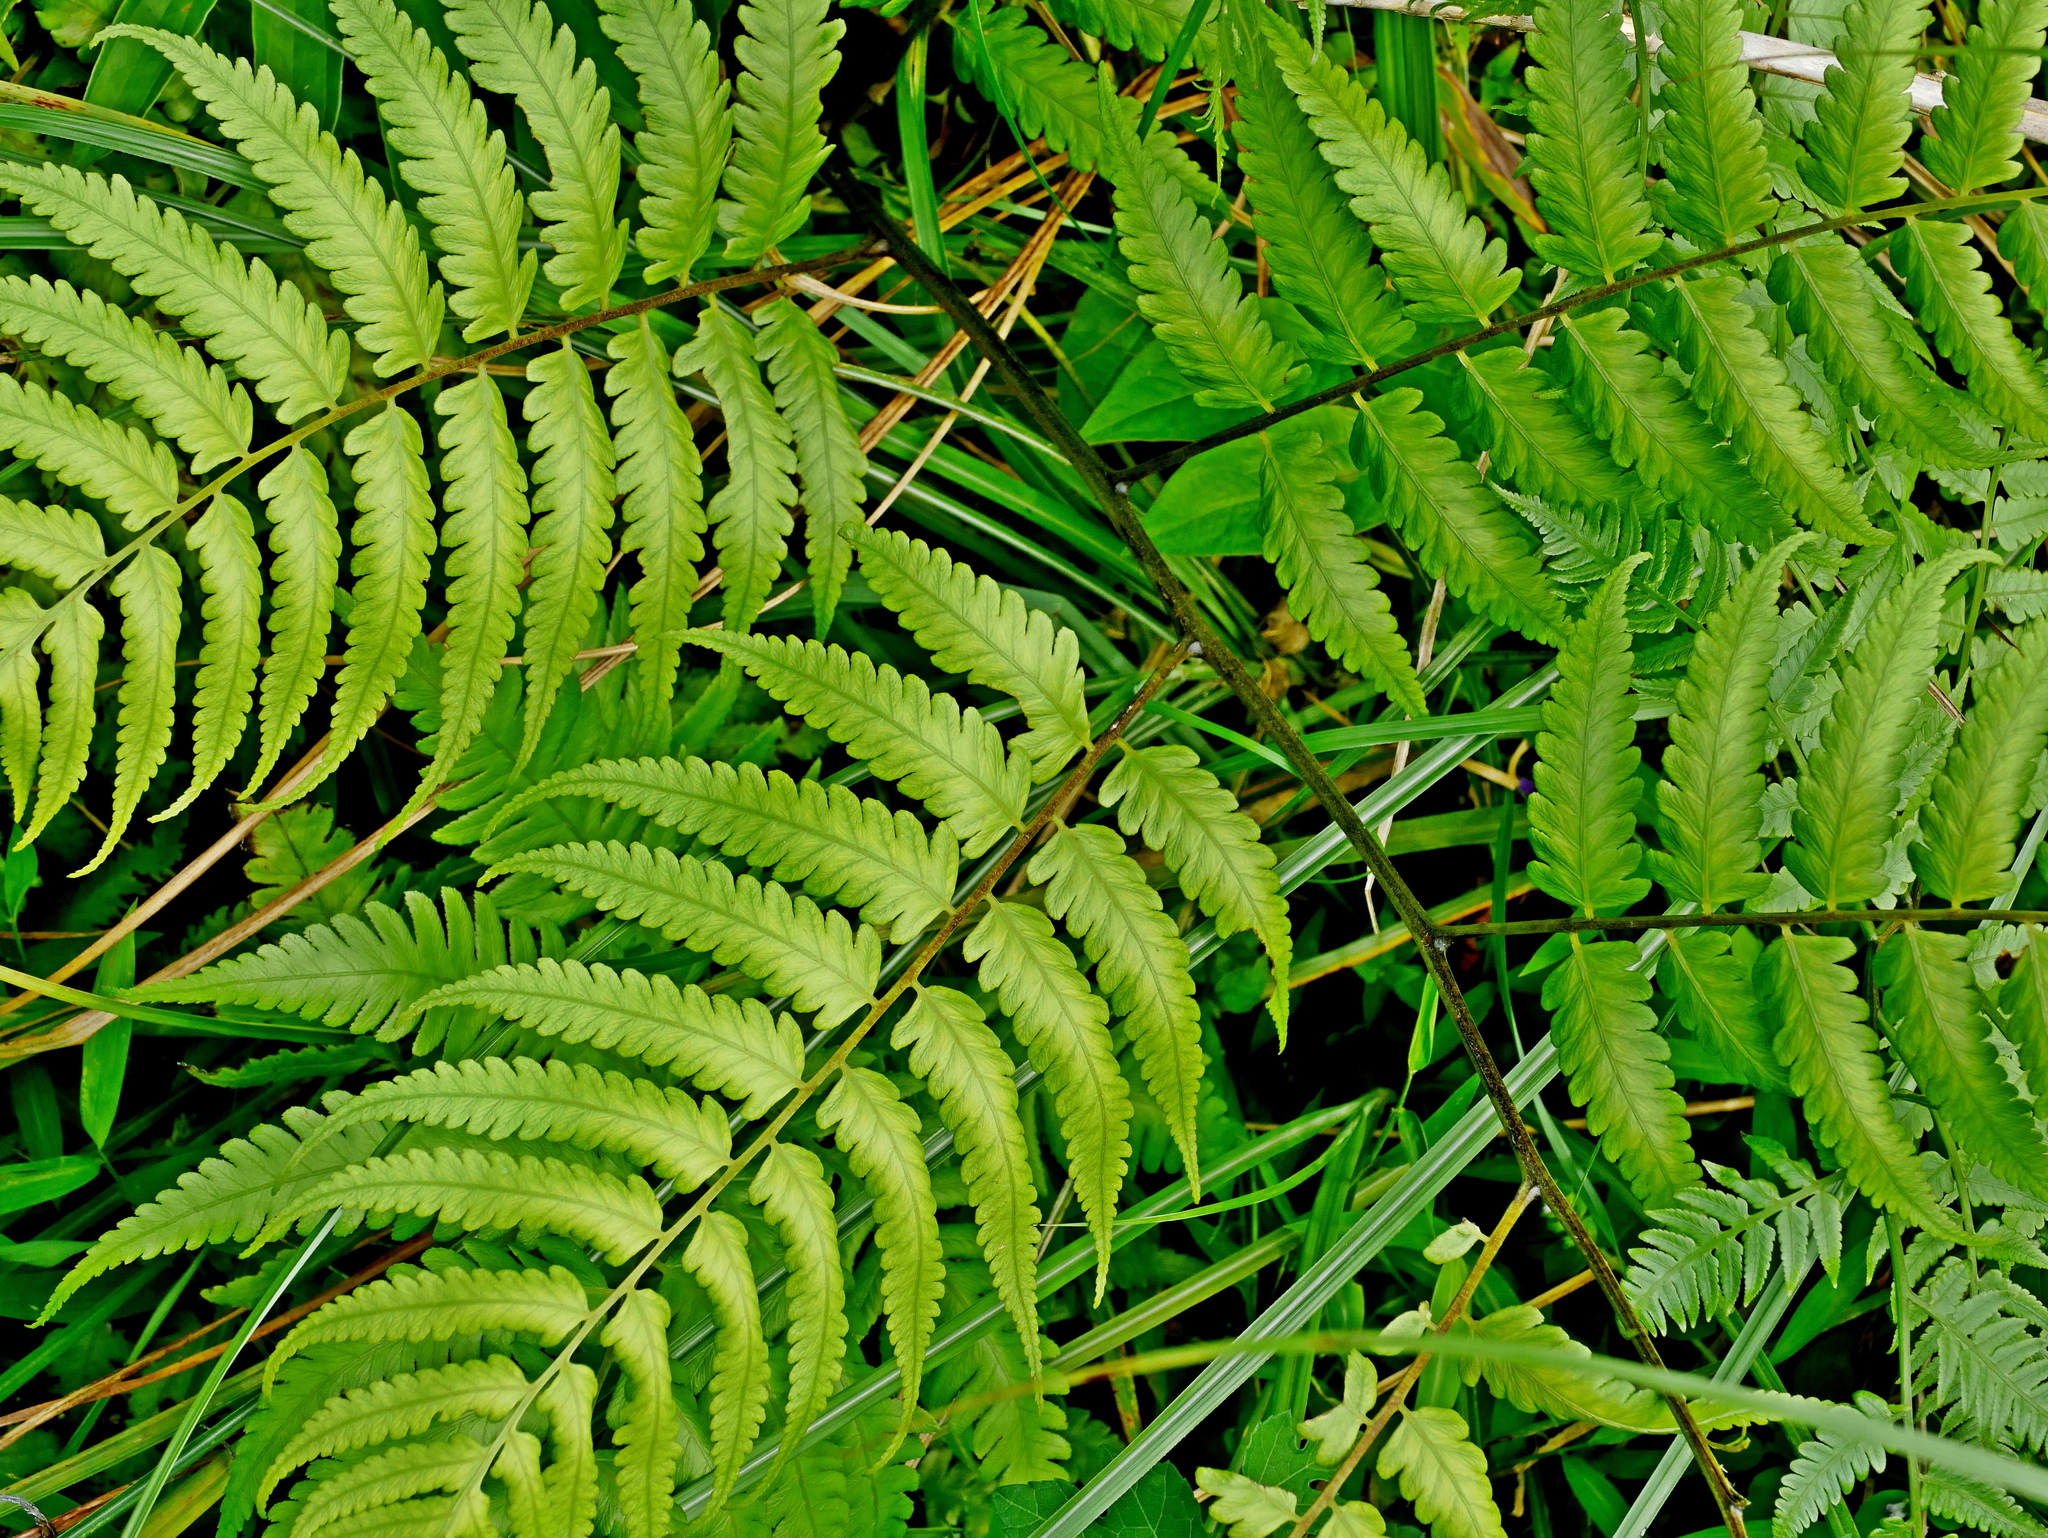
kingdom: Plantae
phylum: Tracheophyta
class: Polypodiopsida
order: Polypodiales
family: Athyriaceae
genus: Diplazium
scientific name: Diplazium taiwanense
